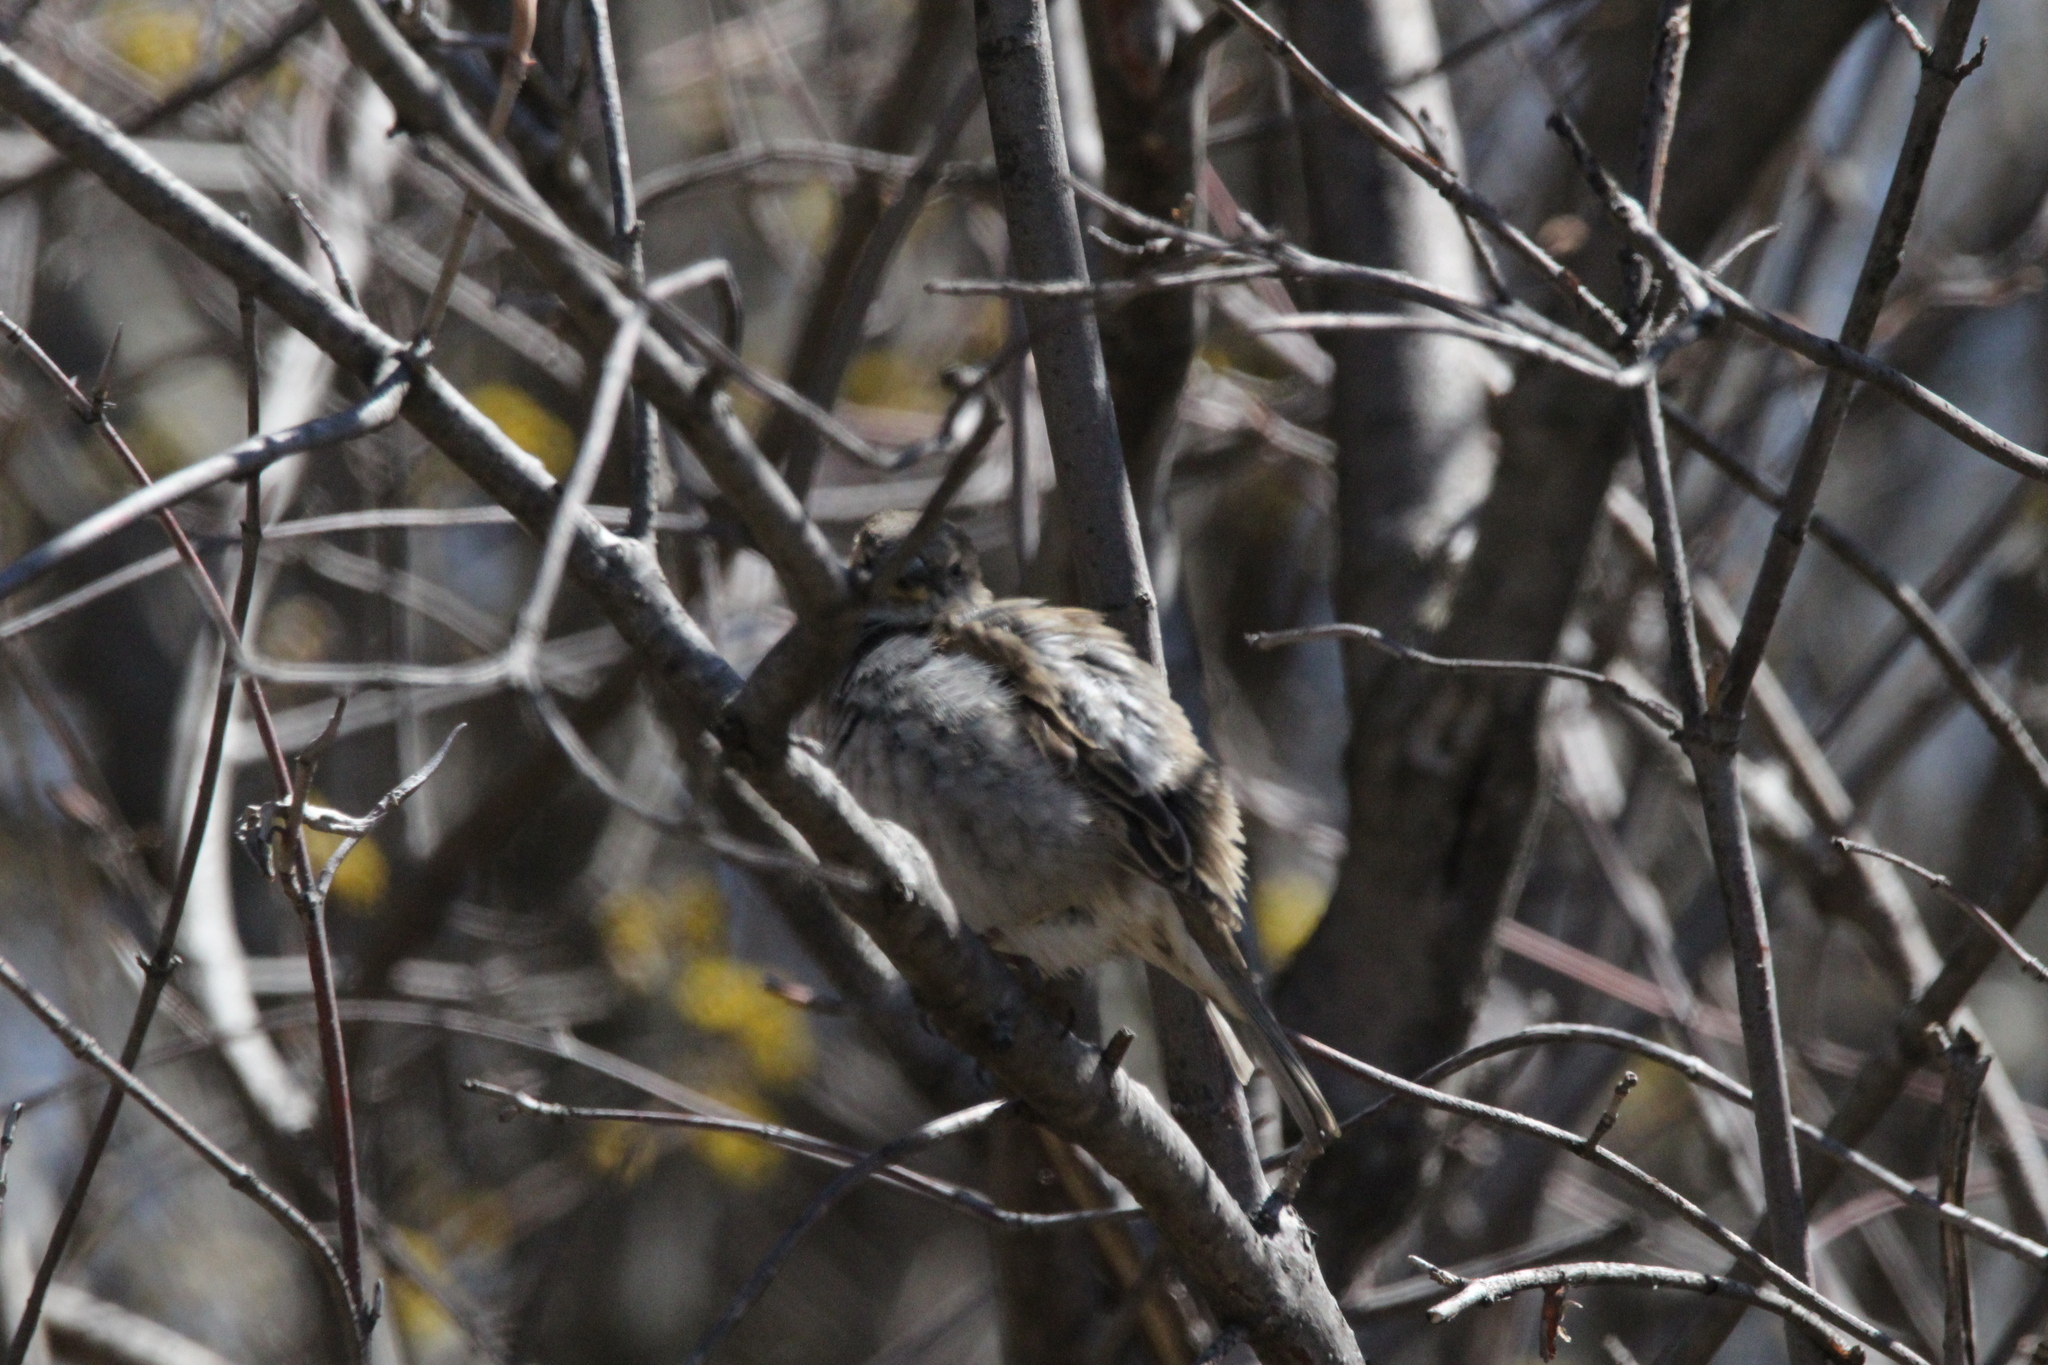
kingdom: Animalia
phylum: Chordata
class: Aves
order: Passeriformes
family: Passeridae
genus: Passer
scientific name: Passer domesticus
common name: House sparrow
